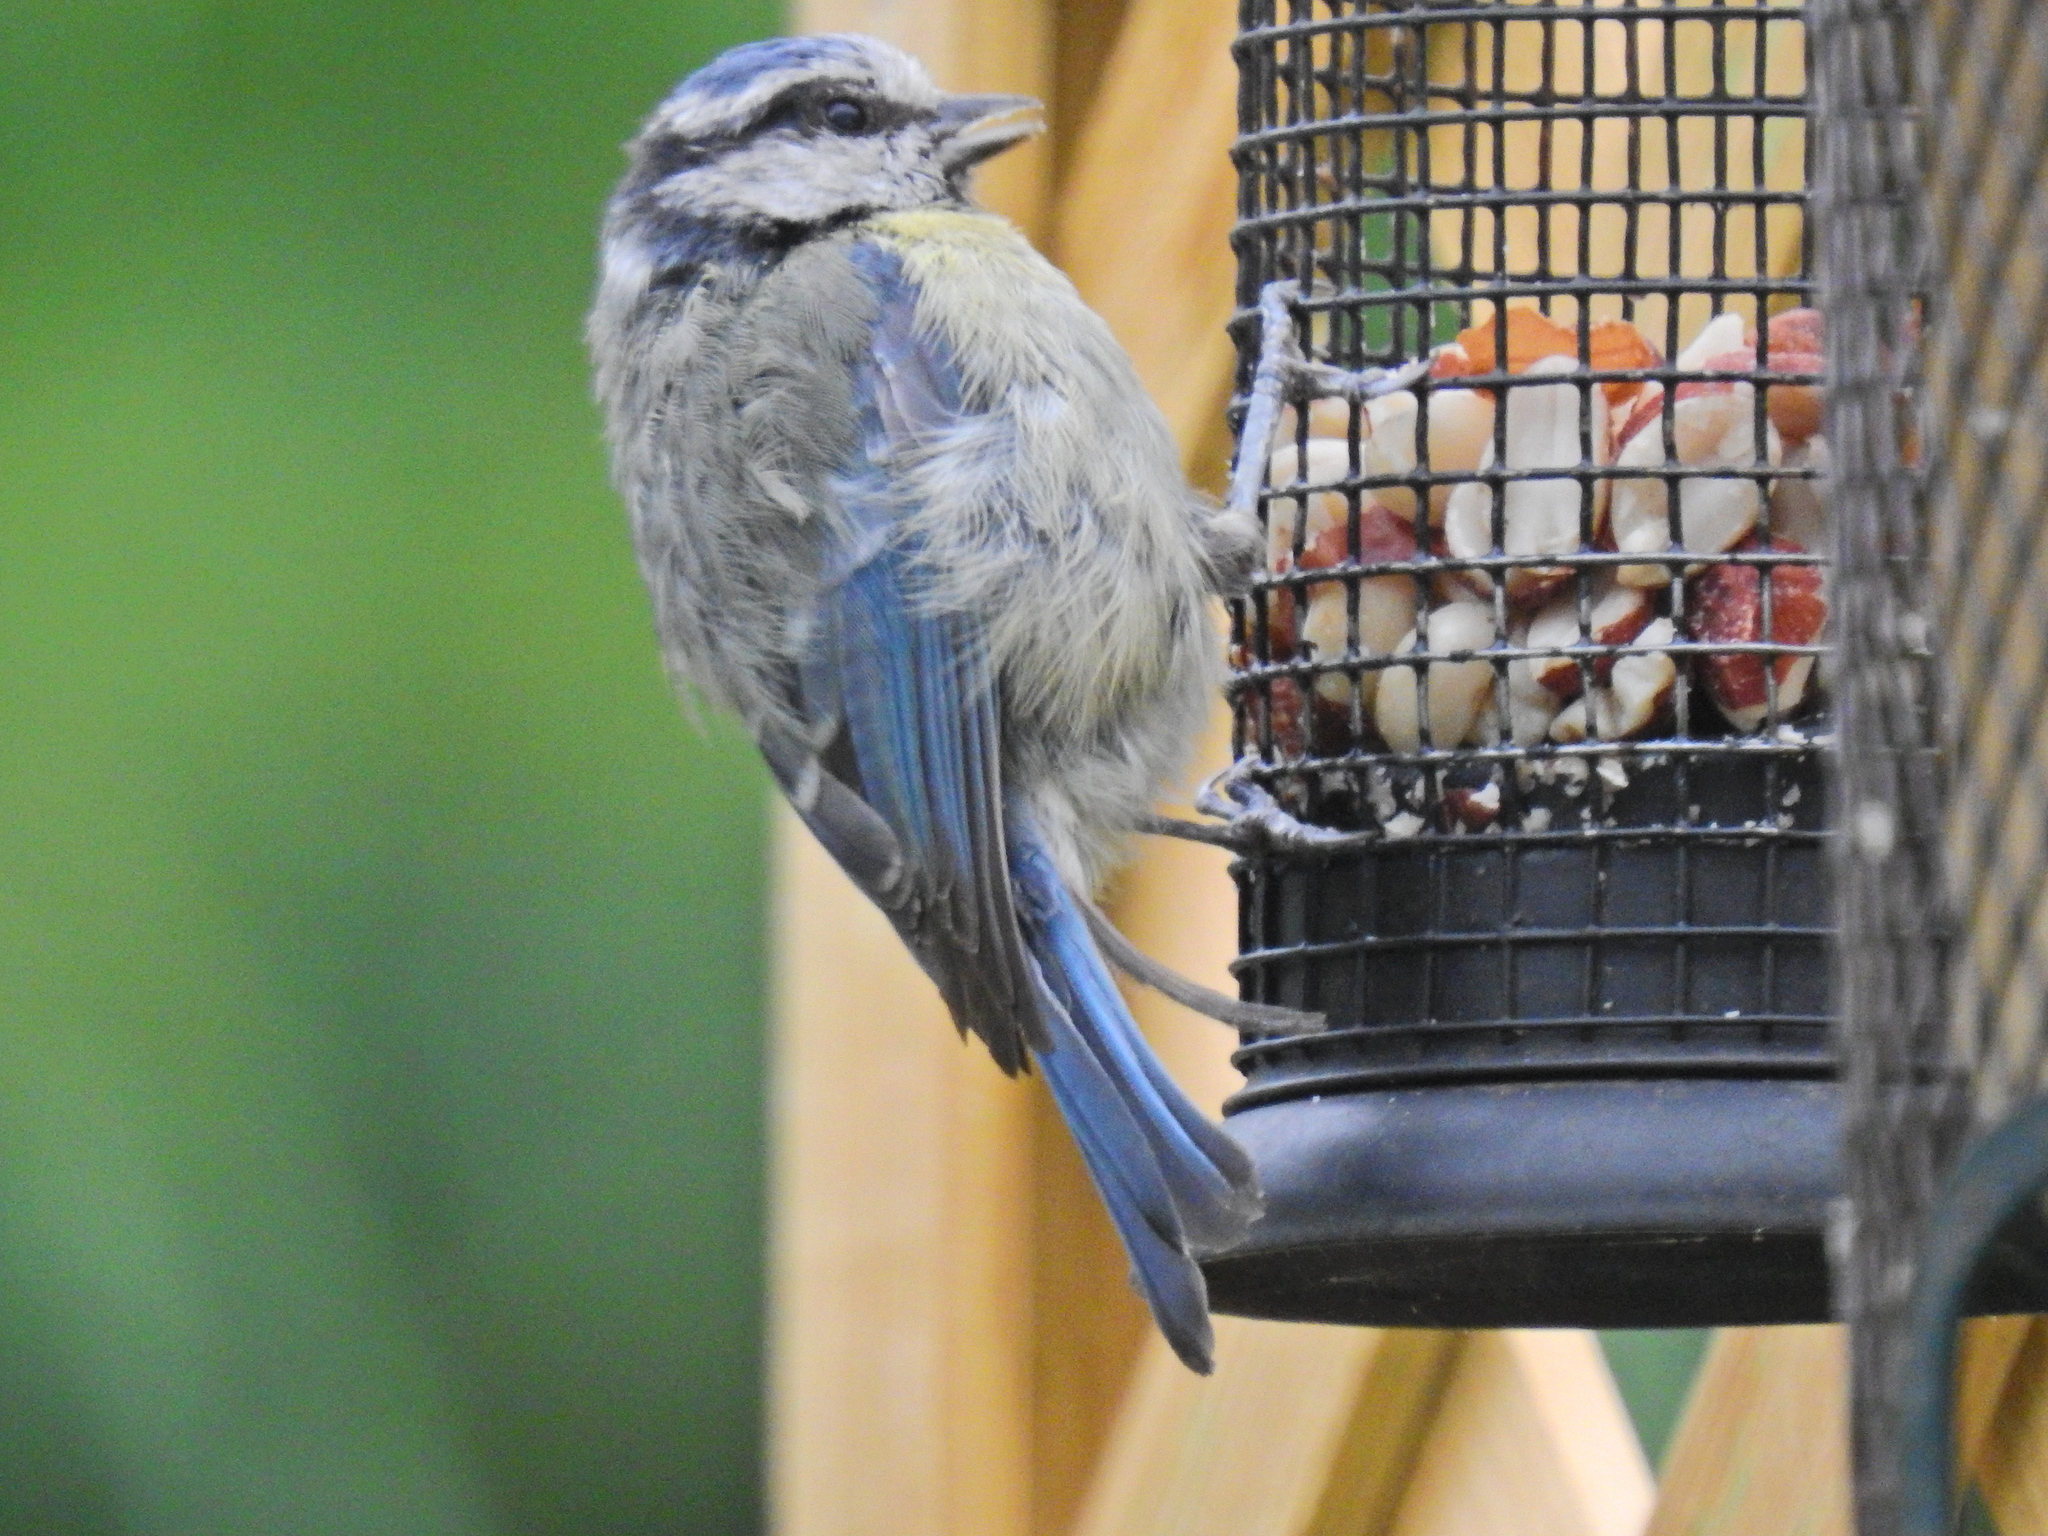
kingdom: Animalia
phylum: Chordata
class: Aves
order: Passeriformes
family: Paridae
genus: Cyanistes
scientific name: Cyanistes caeruleus
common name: Eurasian blue tit
